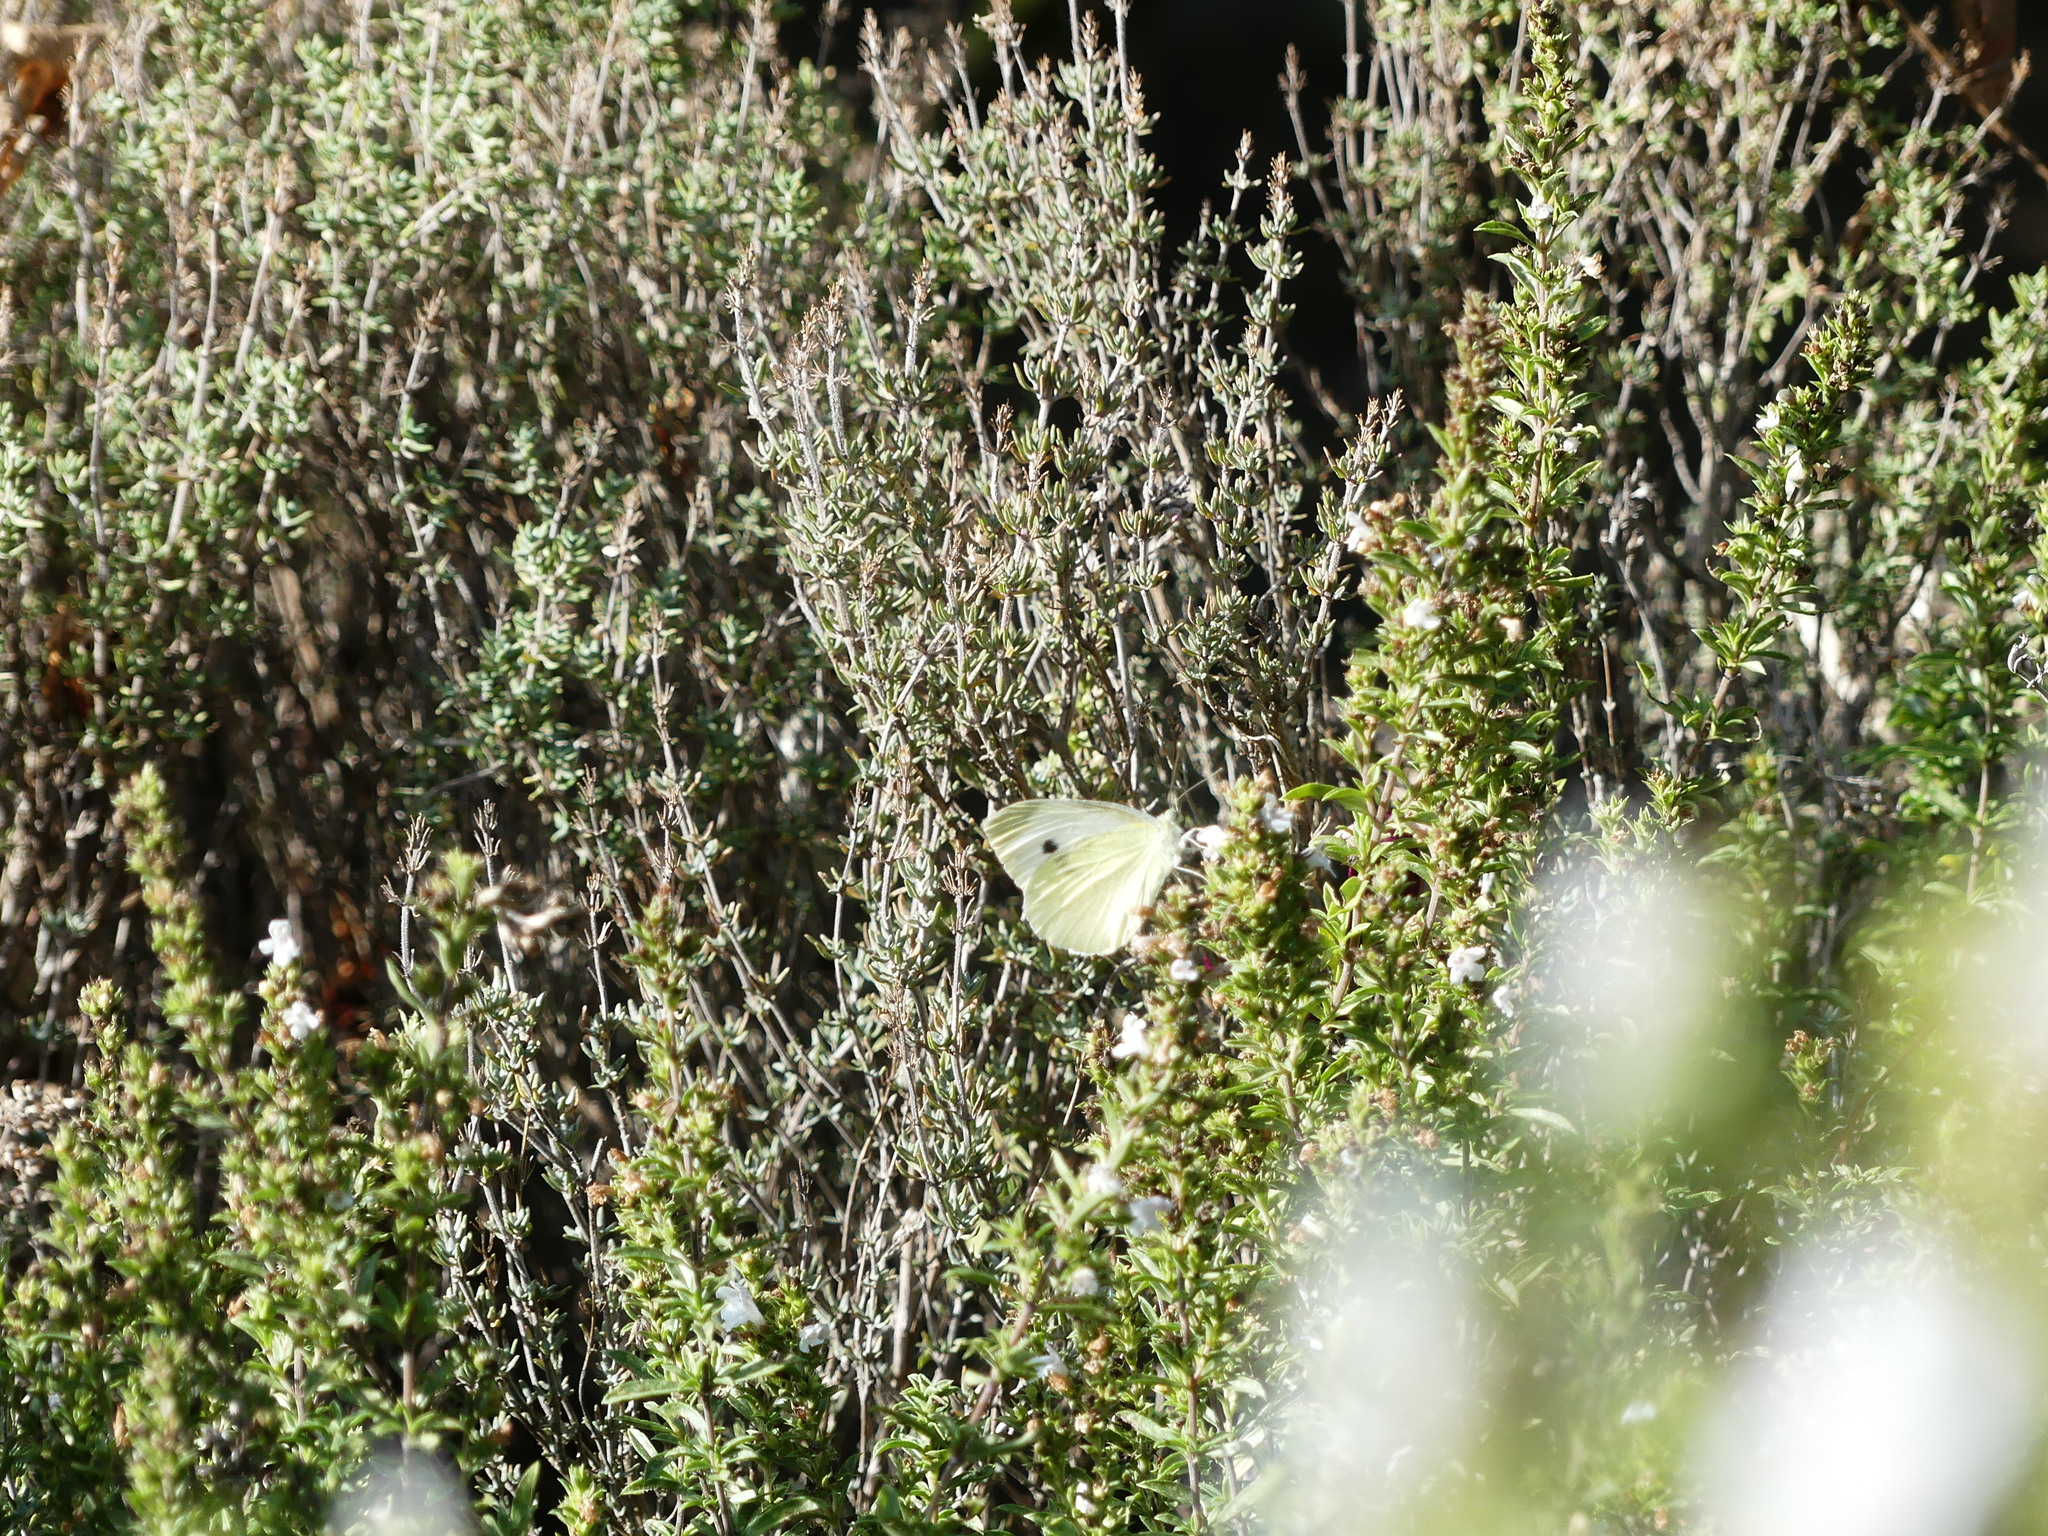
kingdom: Animalia
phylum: Arthropoda
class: Insecta
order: Lepidoptera
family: Pieridae
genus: Pieris
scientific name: Pieris rapae
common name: Small white
